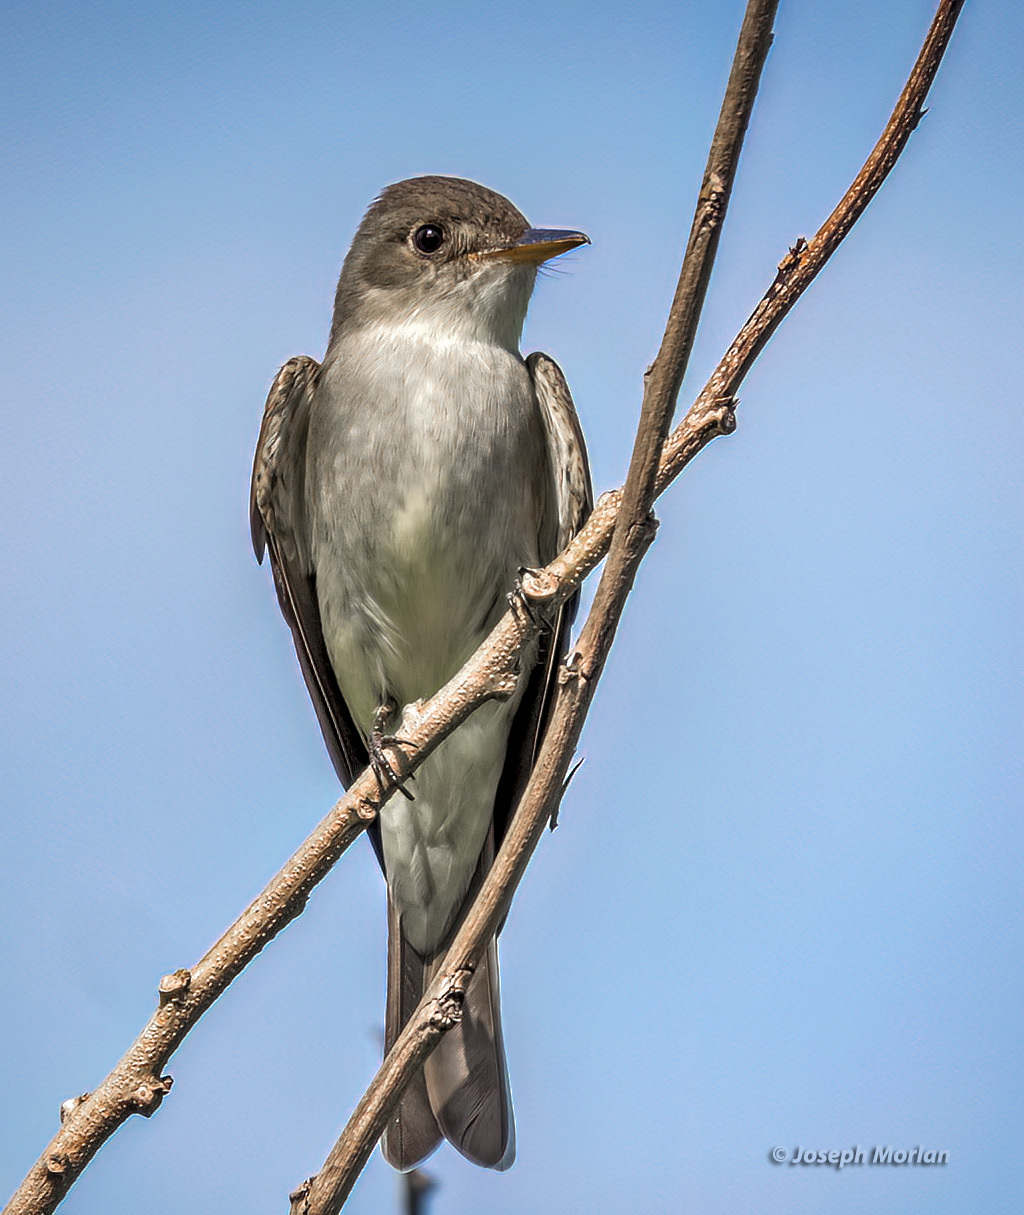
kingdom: Animalia
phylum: Chordata
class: Aves
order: Passeriformes
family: Tyrannidae
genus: Contopus
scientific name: Contopus virens
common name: Eastern wood-pewee
